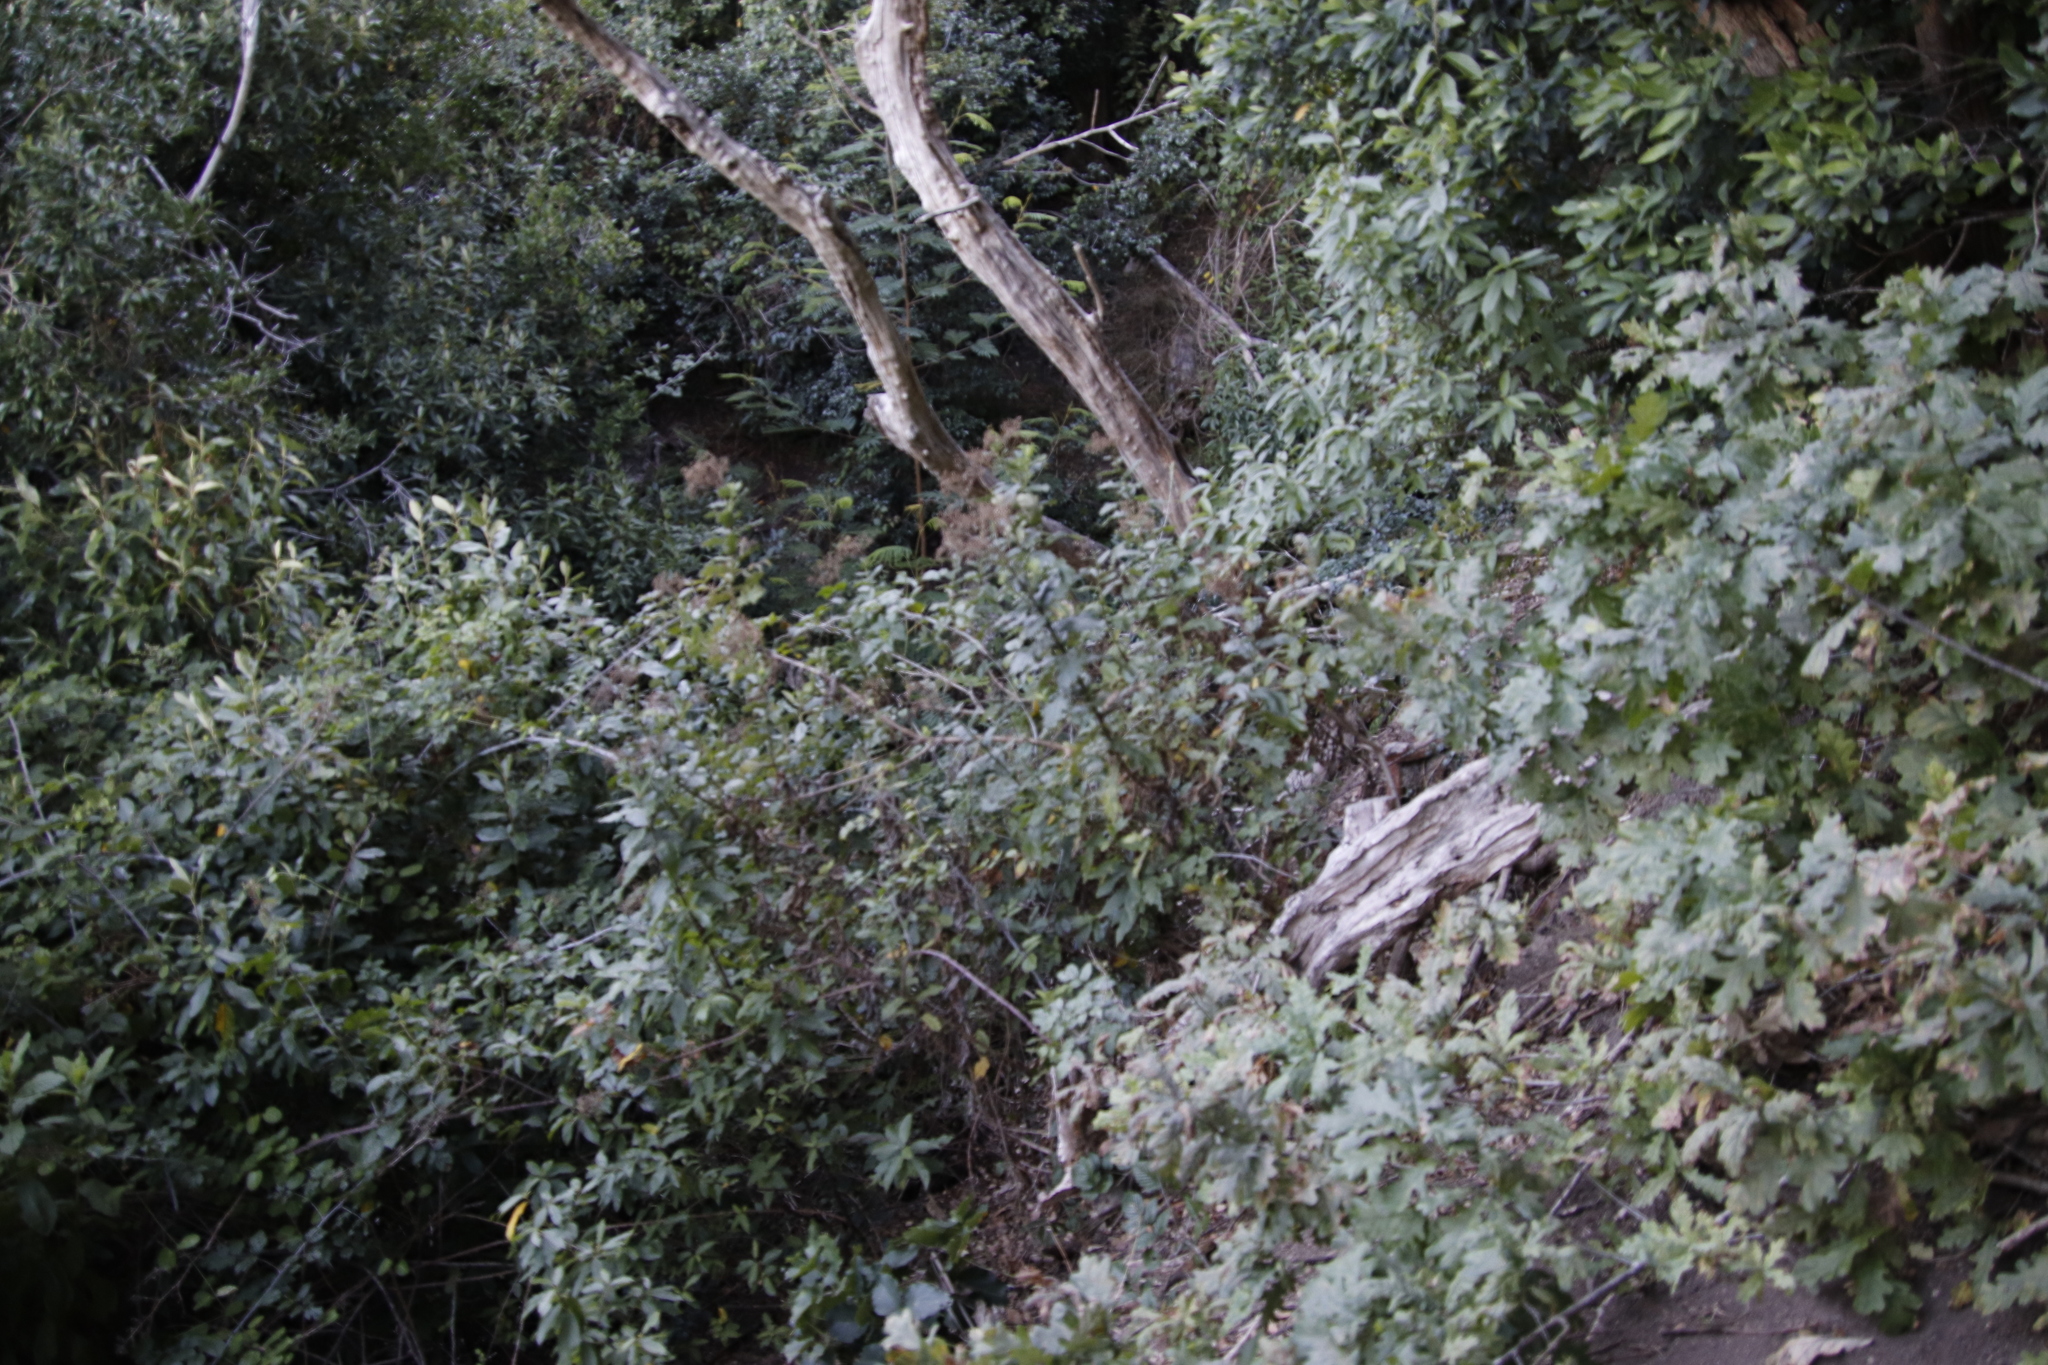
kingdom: Plantae
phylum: Tracheophyta
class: Magnoliopsida
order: Asterales
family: Asteraceae
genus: Senecio
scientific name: Senecio rigidus
